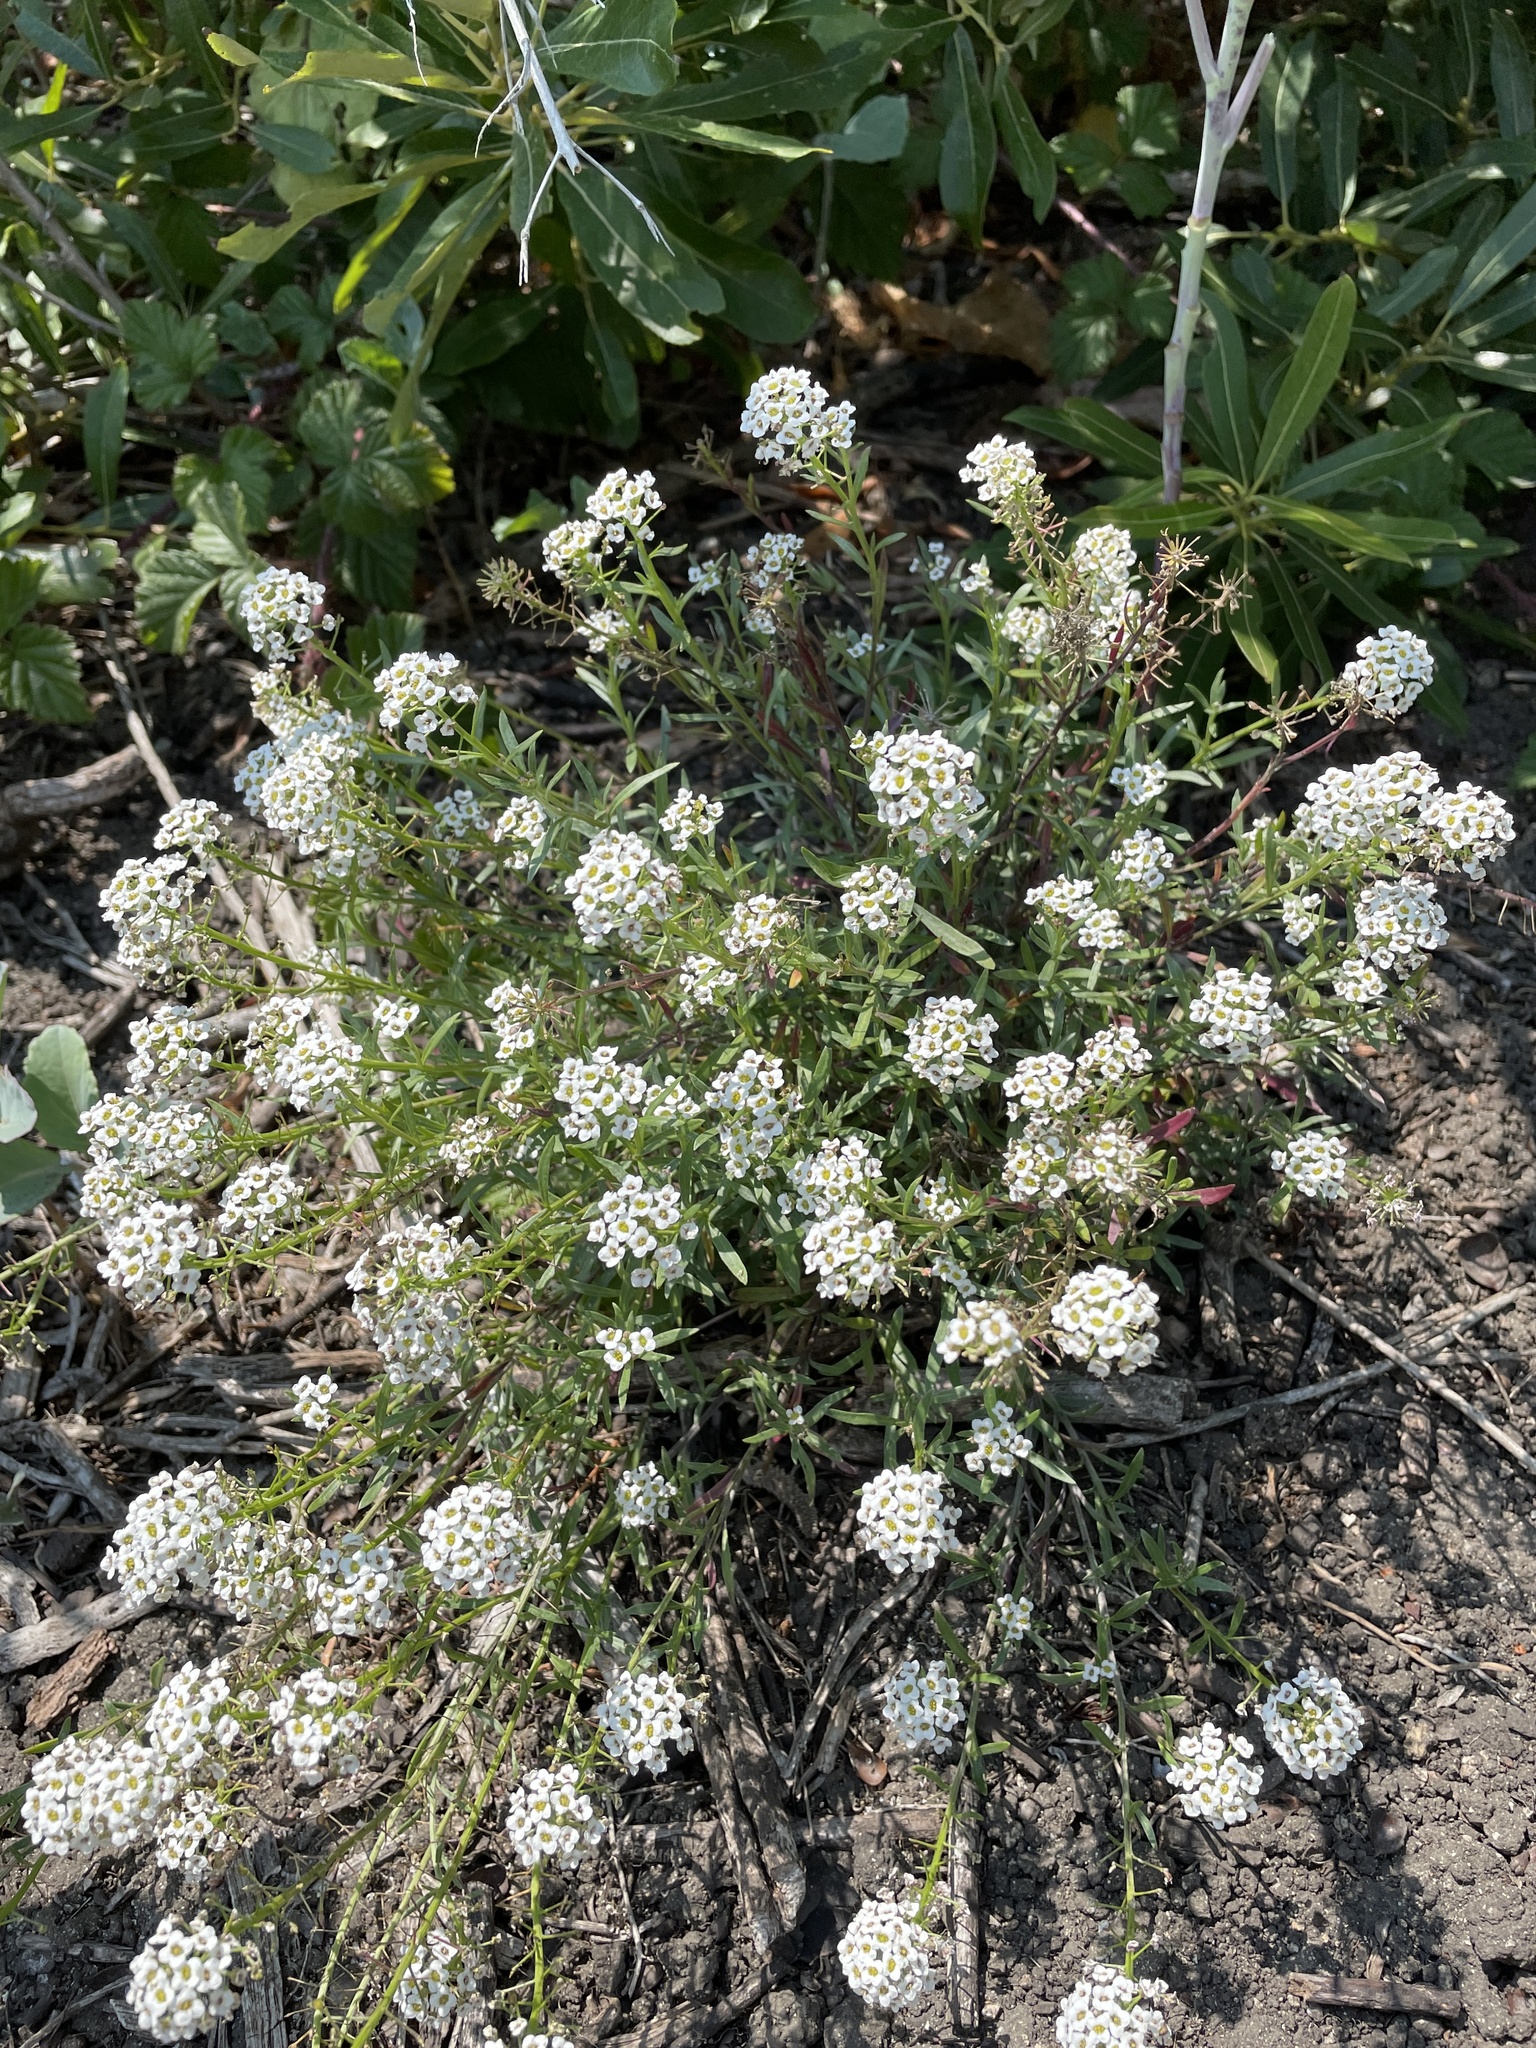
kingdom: Plantae
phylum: Tracheophyta
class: Magnoliopsida
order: Brassicales
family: Brassicaceae
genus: Lobularia
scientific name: Lobularia maritima
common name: Sweet alison
